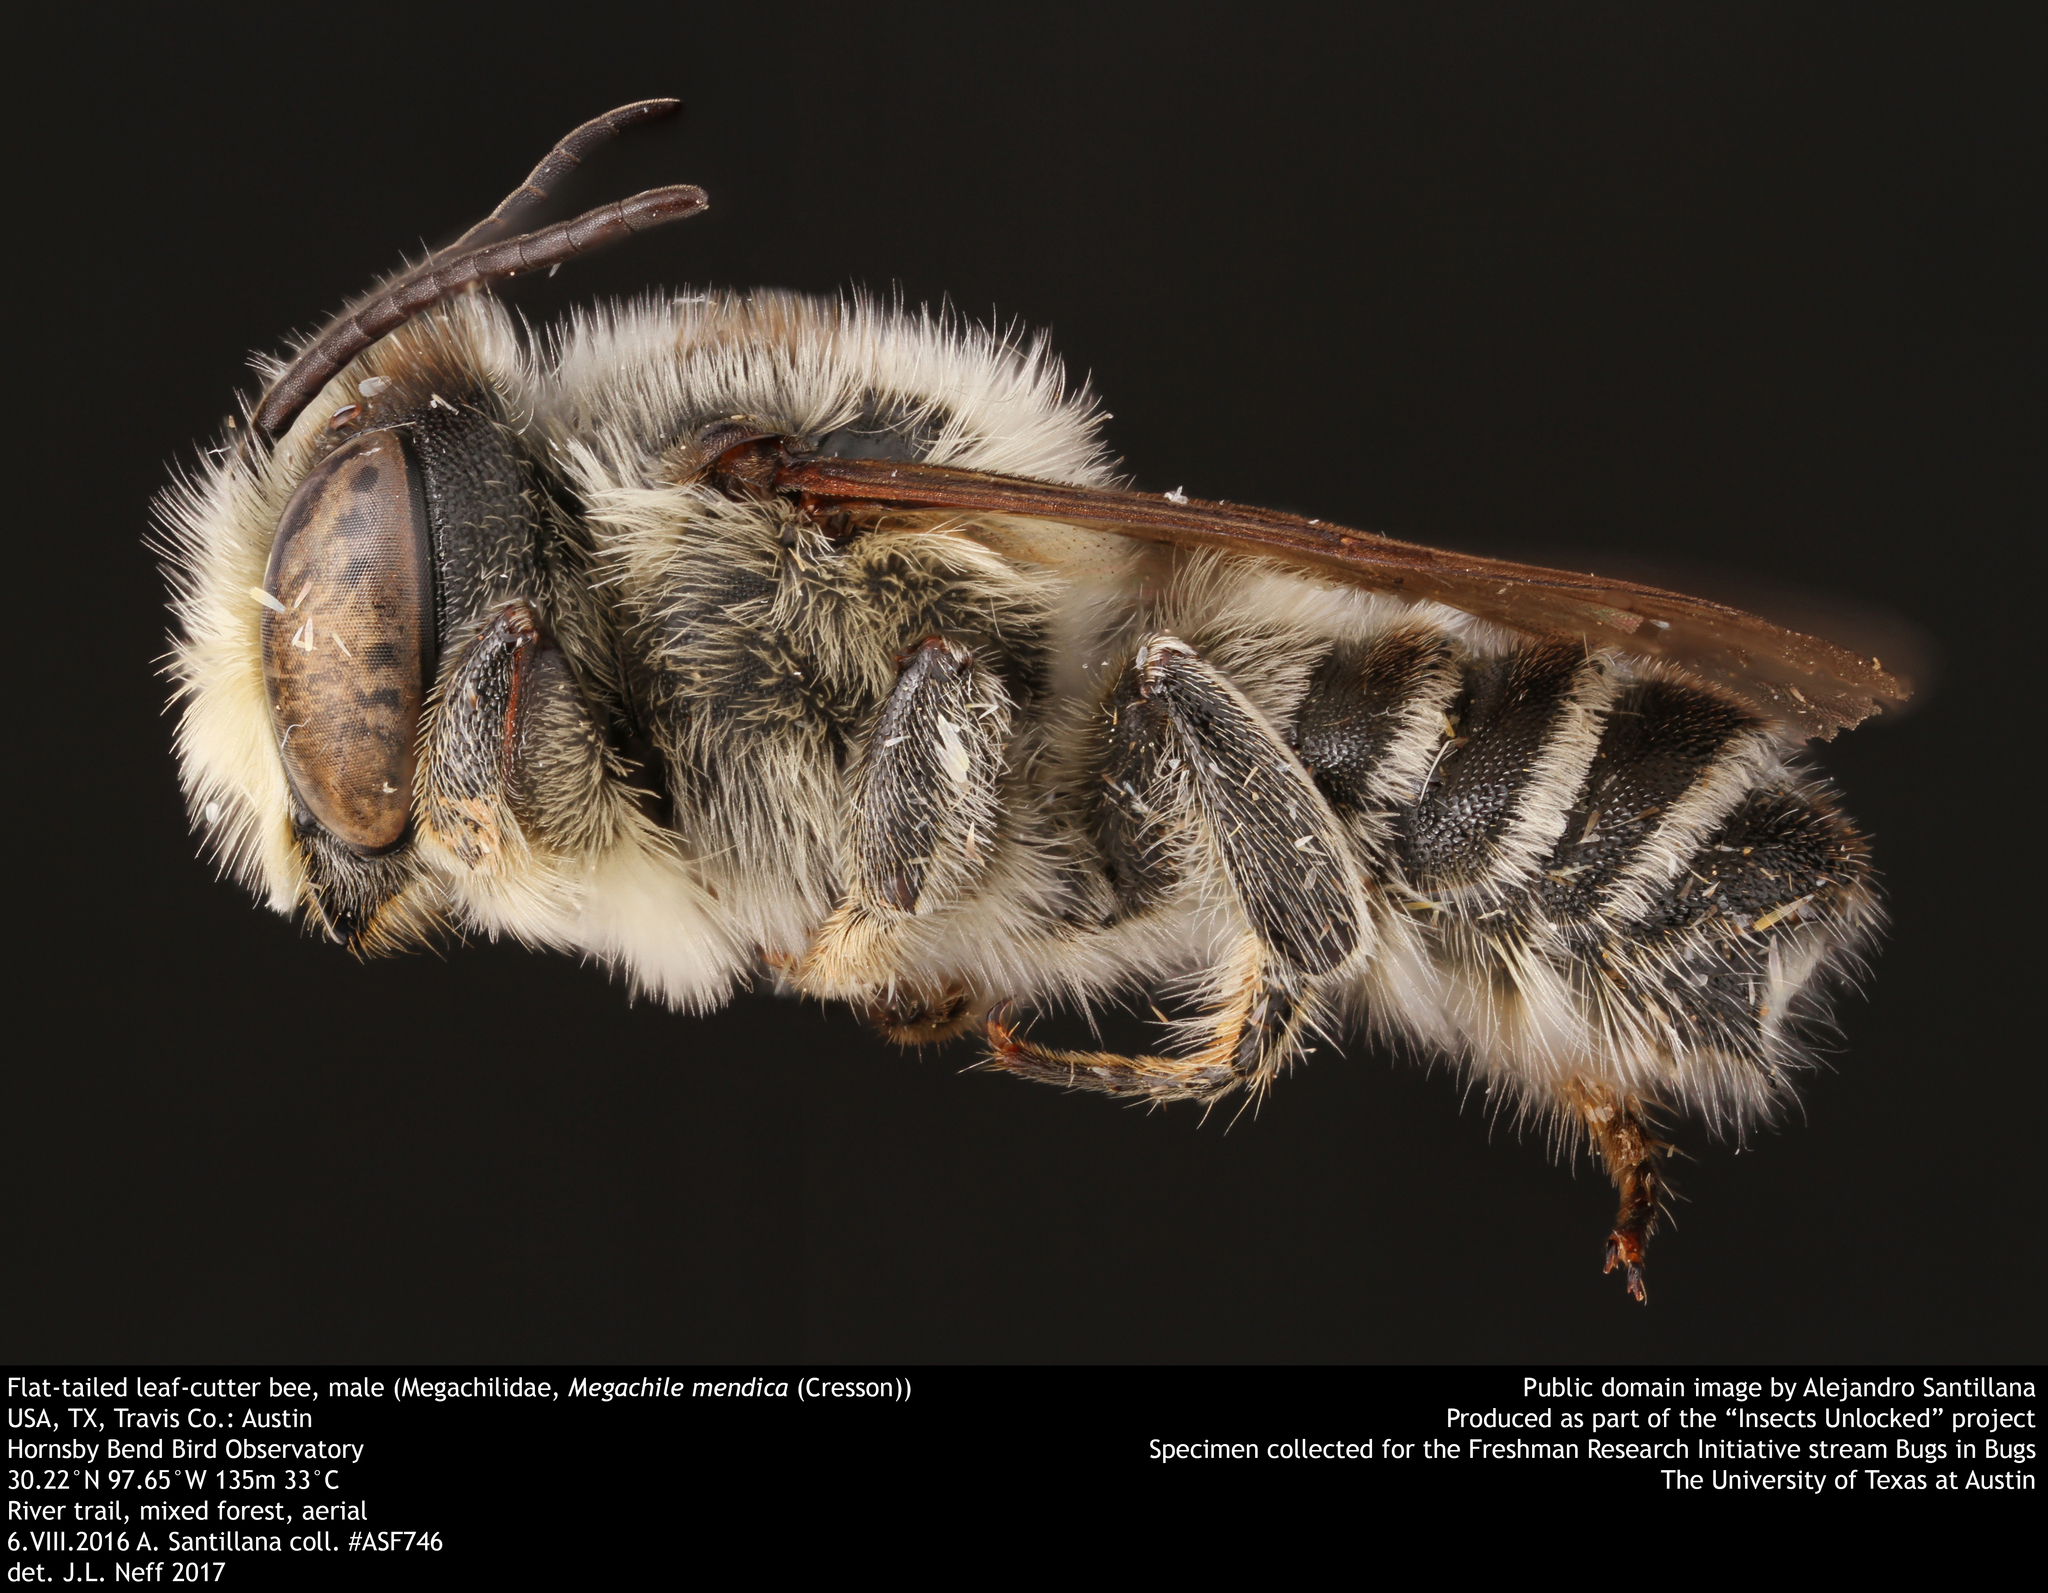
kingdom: Animalia
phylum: Arthropoda
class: Insecta
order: Hymenoptera
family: Megachilidae
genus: Megachile
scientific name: Megachile mendica
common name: Flat-tailed leafcutter
